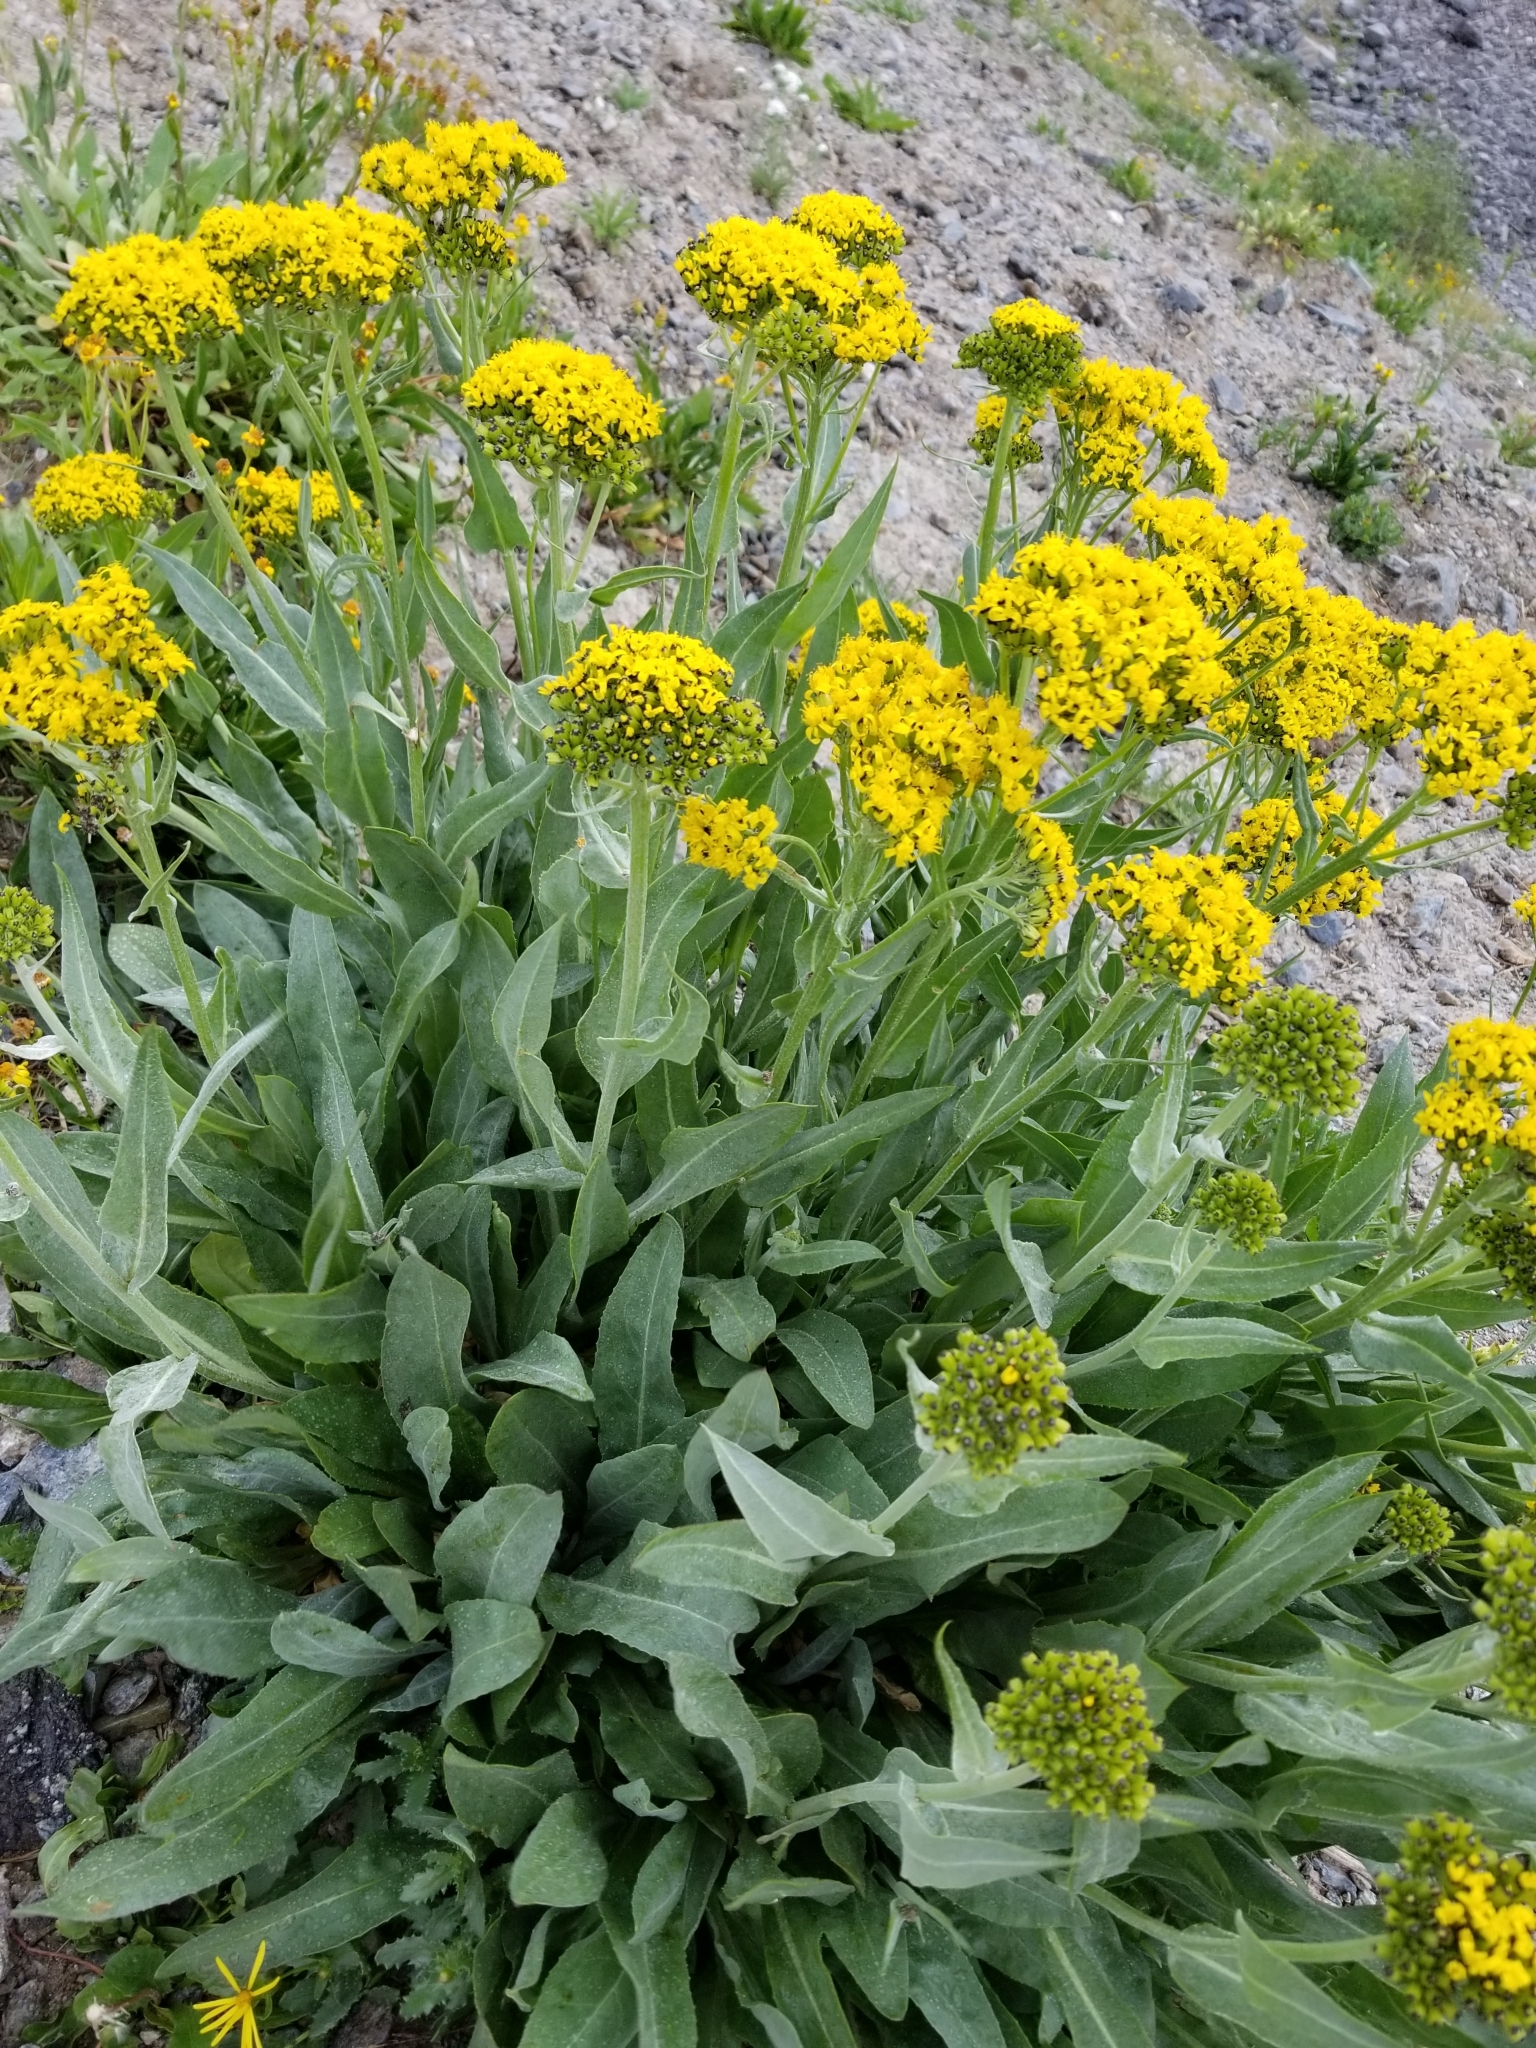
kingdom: Plantae
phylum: Tracheophyta
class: Magnoliopsida
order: Asterales
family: Asteraceae
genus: Senecio
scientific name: Senecio atratus
